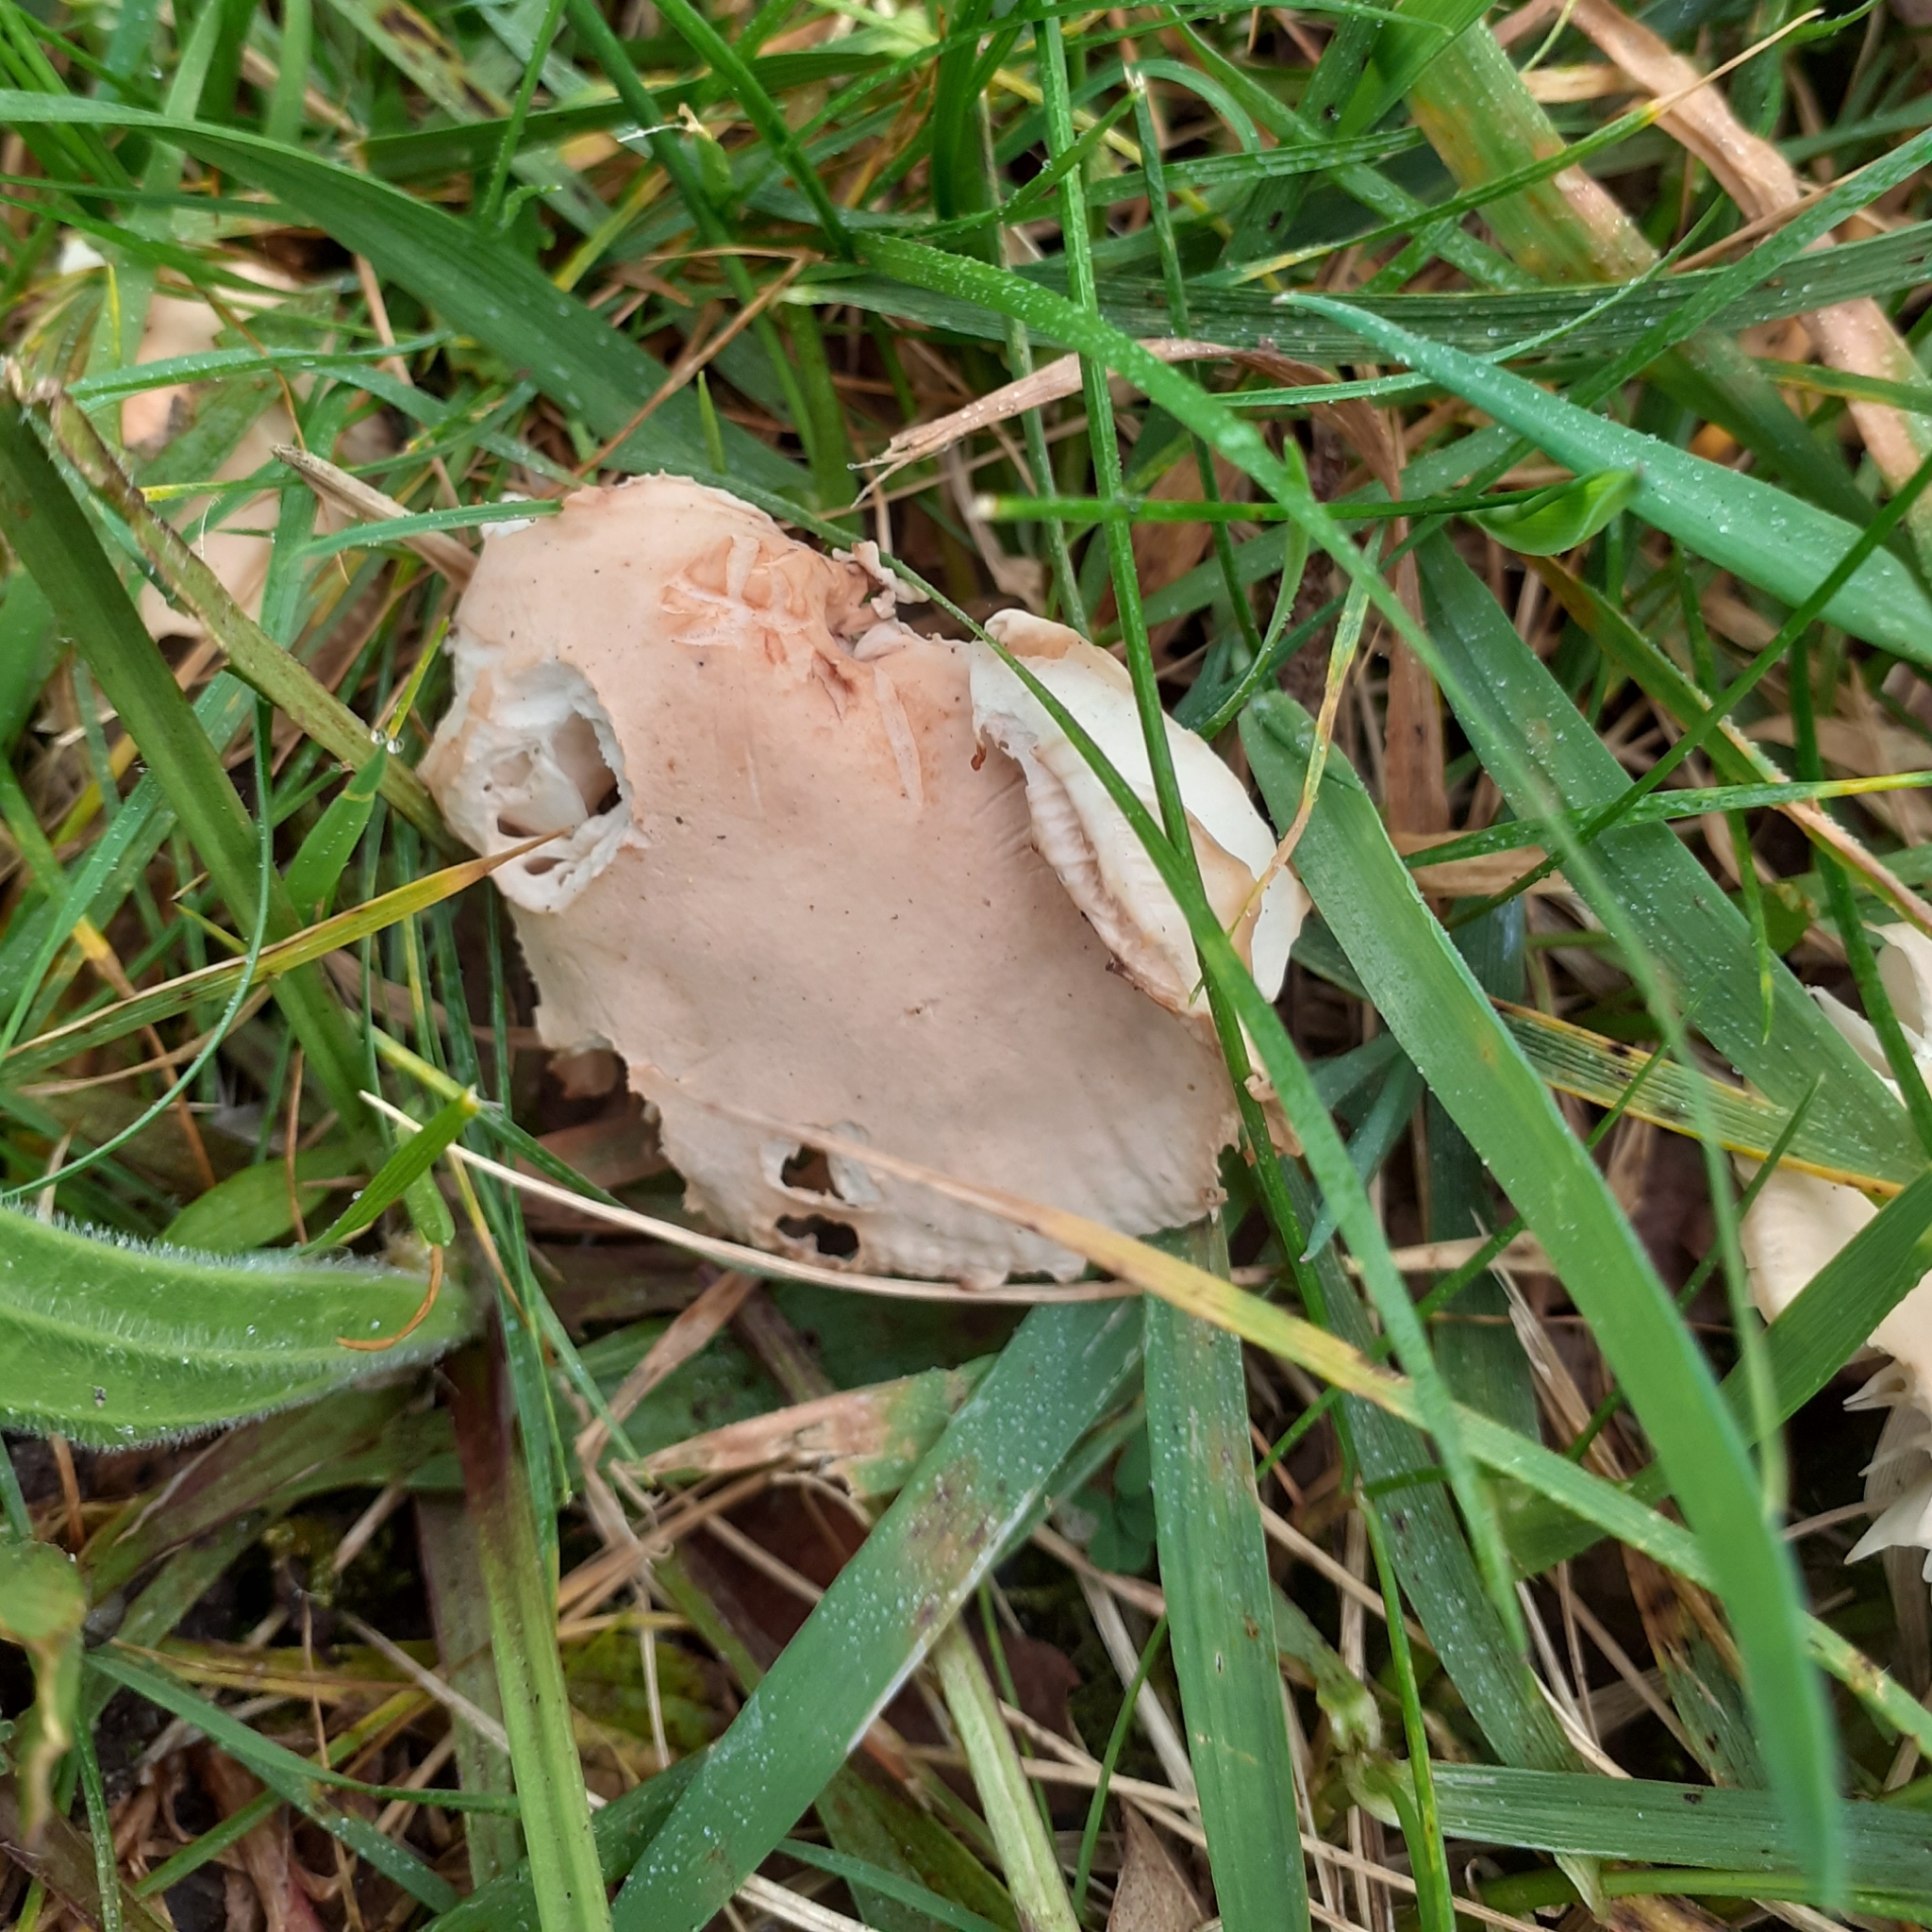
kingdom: Fungi
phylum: Basidiomycota
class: Agaricomycetes
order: Agaricales
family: Marasmiaceae
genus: Marasmius
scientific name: Marasmius oreades
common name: Fairy ring champignon
